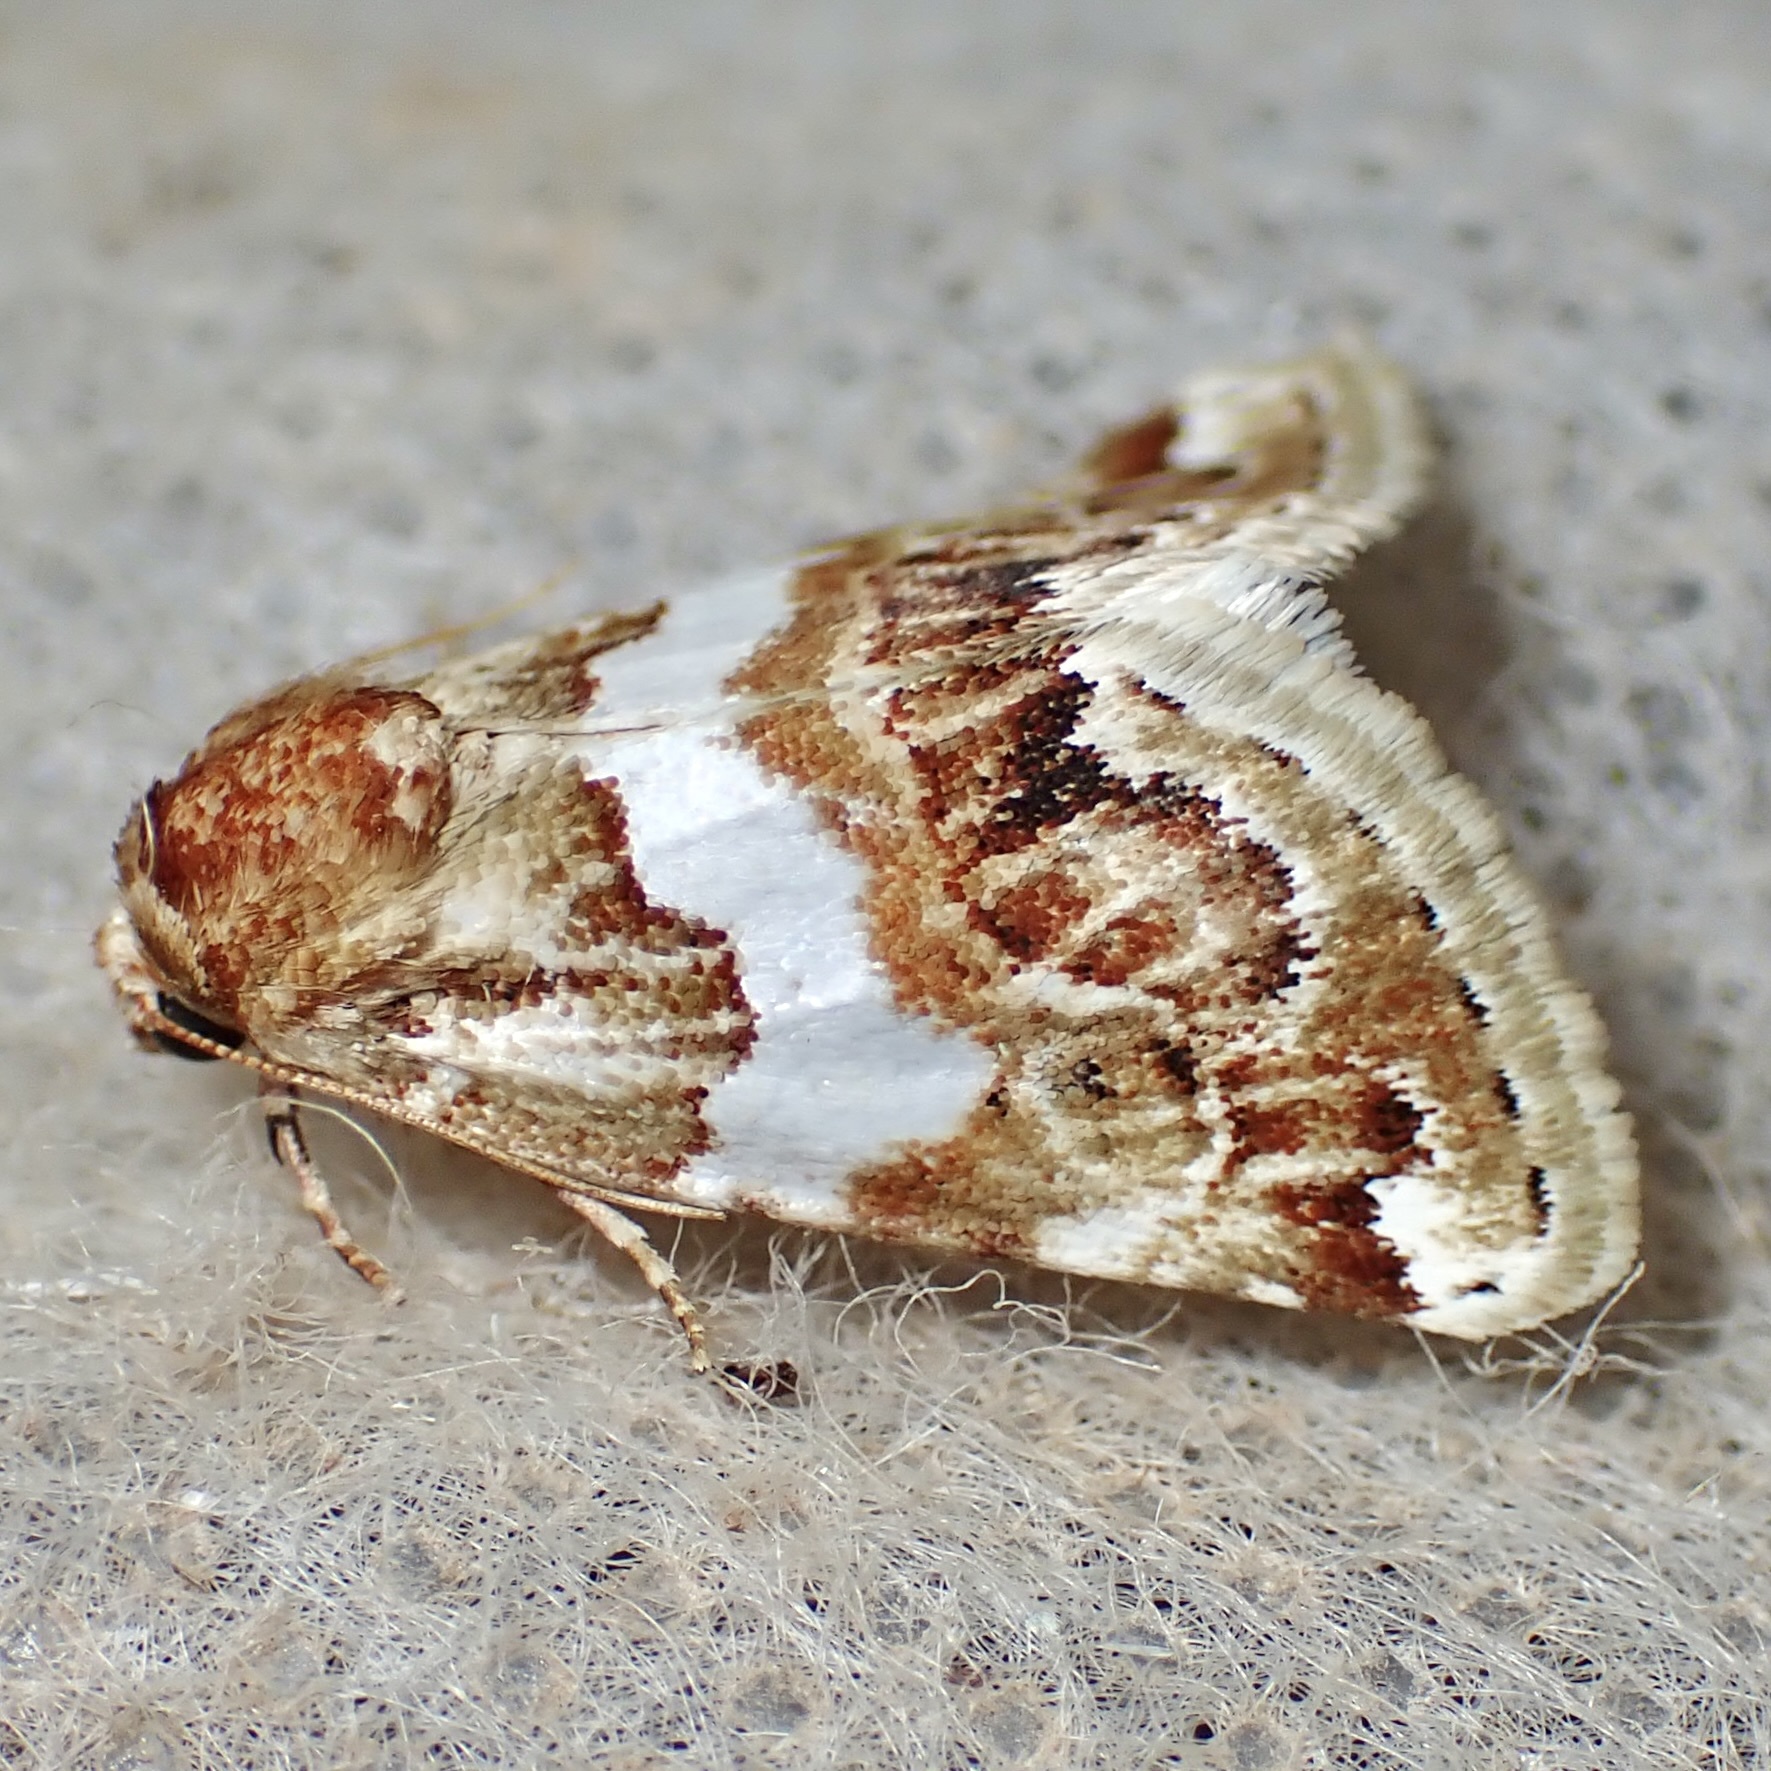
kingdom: Animalia
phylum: Arthropoda
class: Insecta
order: Lepidoptera
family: Noctuidae
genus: Schinia
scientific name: Schinia argentifascia
